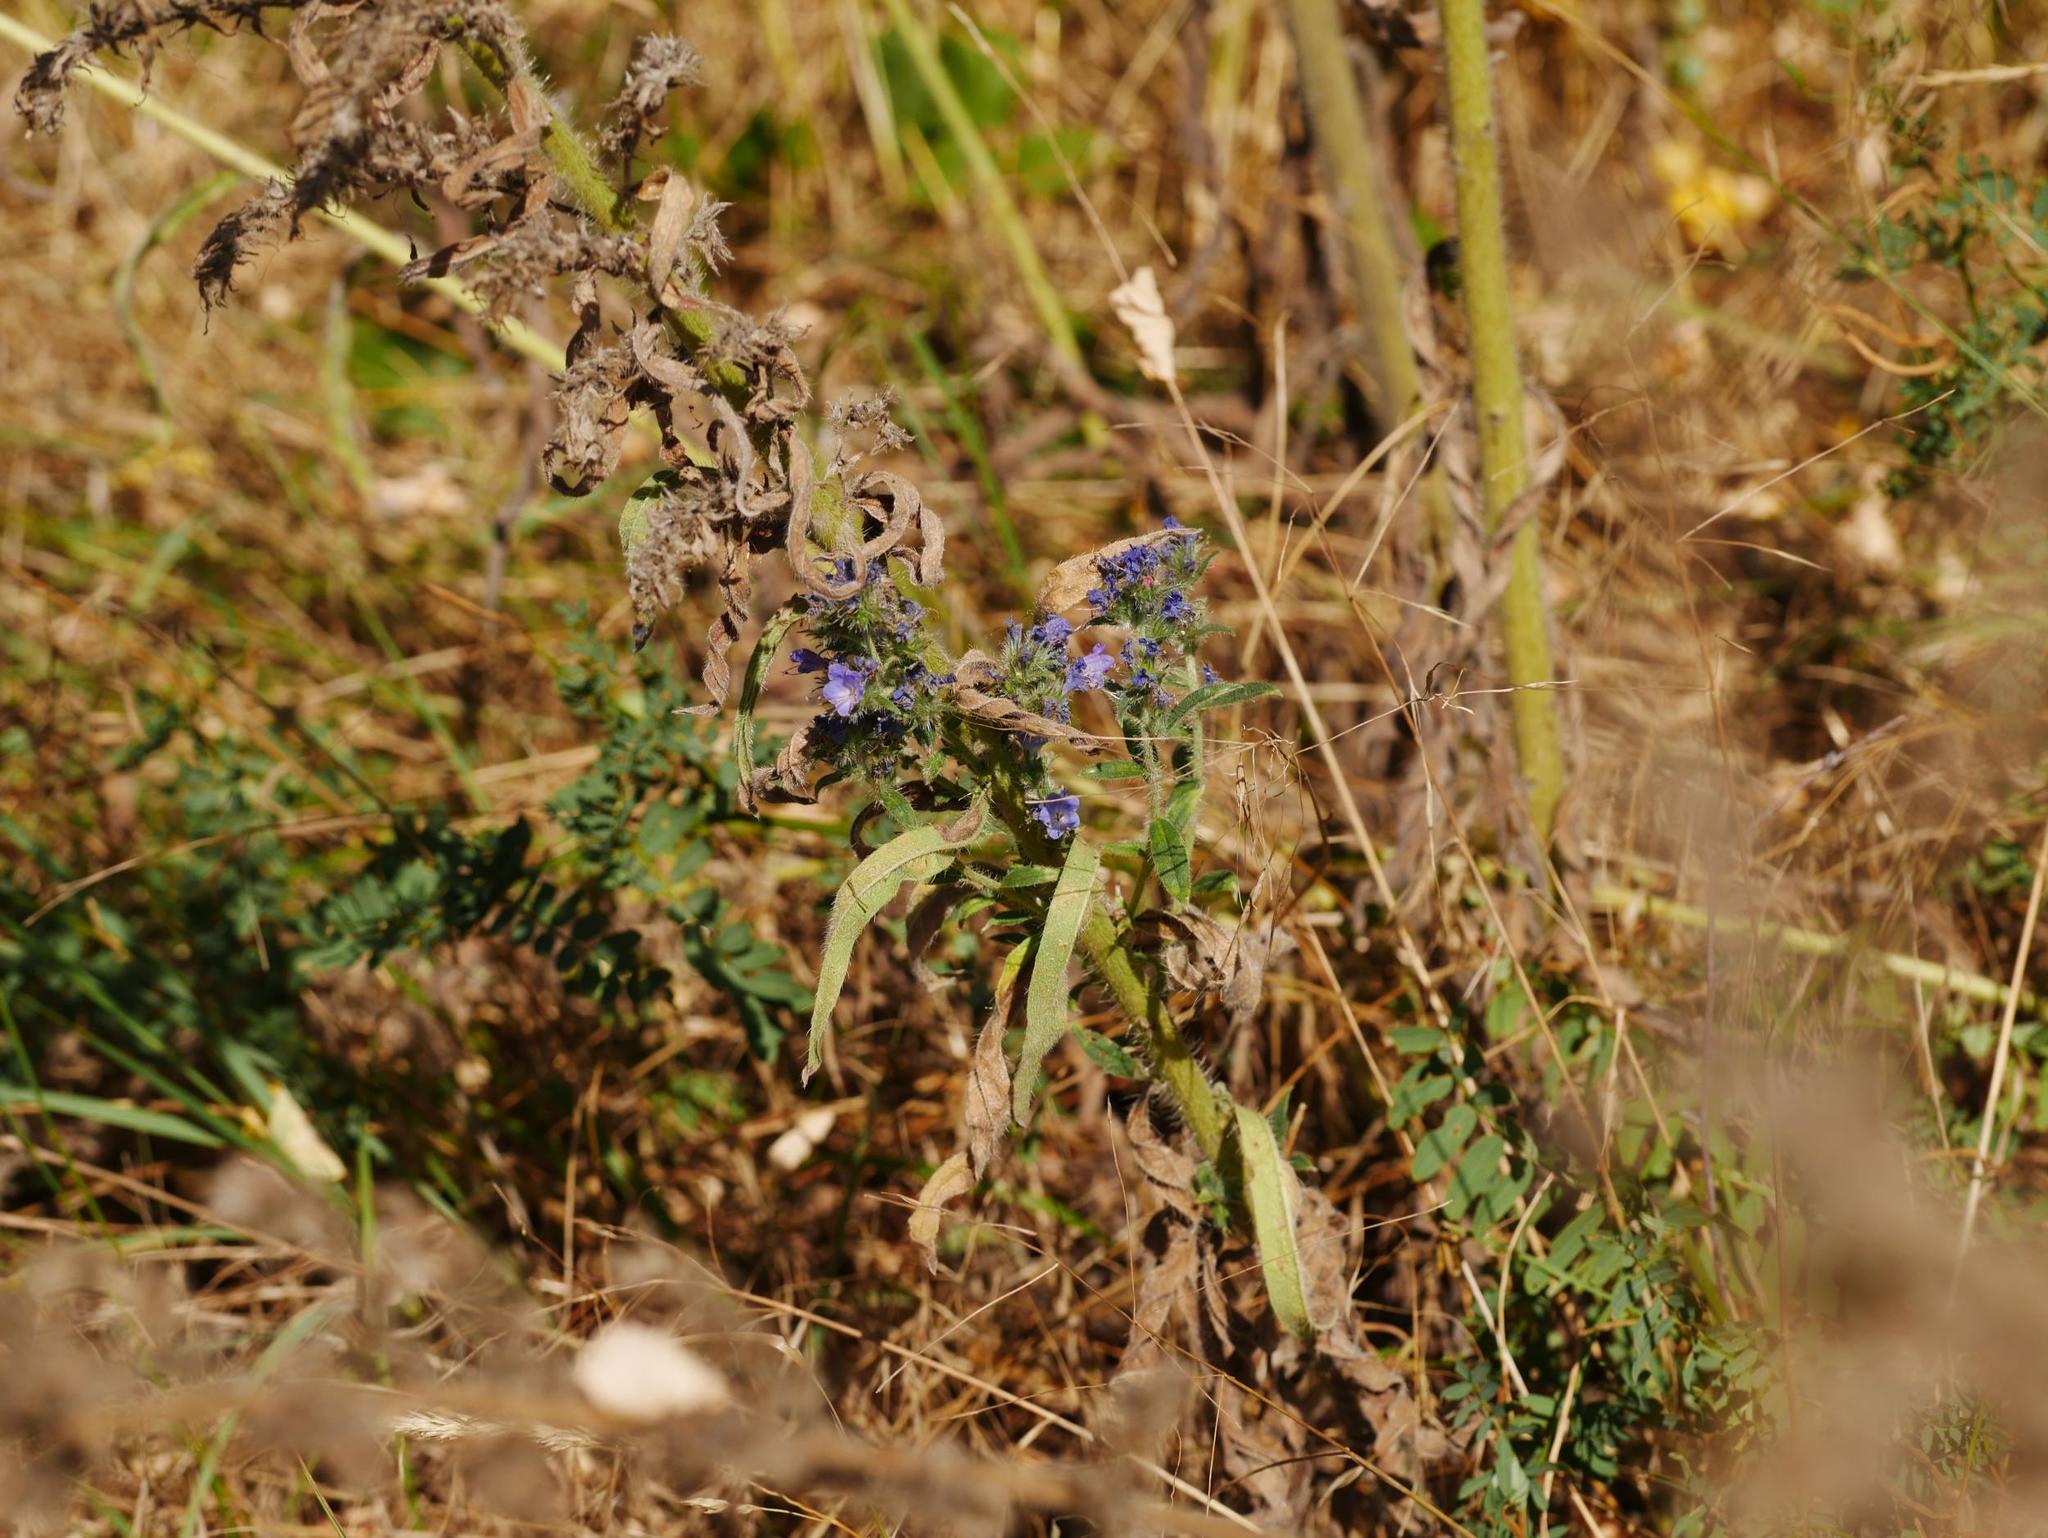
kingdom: Plantae
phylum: Tracheophyta
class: Magnoliopsida
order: Boraginales
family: Boraginaceae
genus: Echium
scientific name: Echium vulgare
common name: Common viper's bugloss
